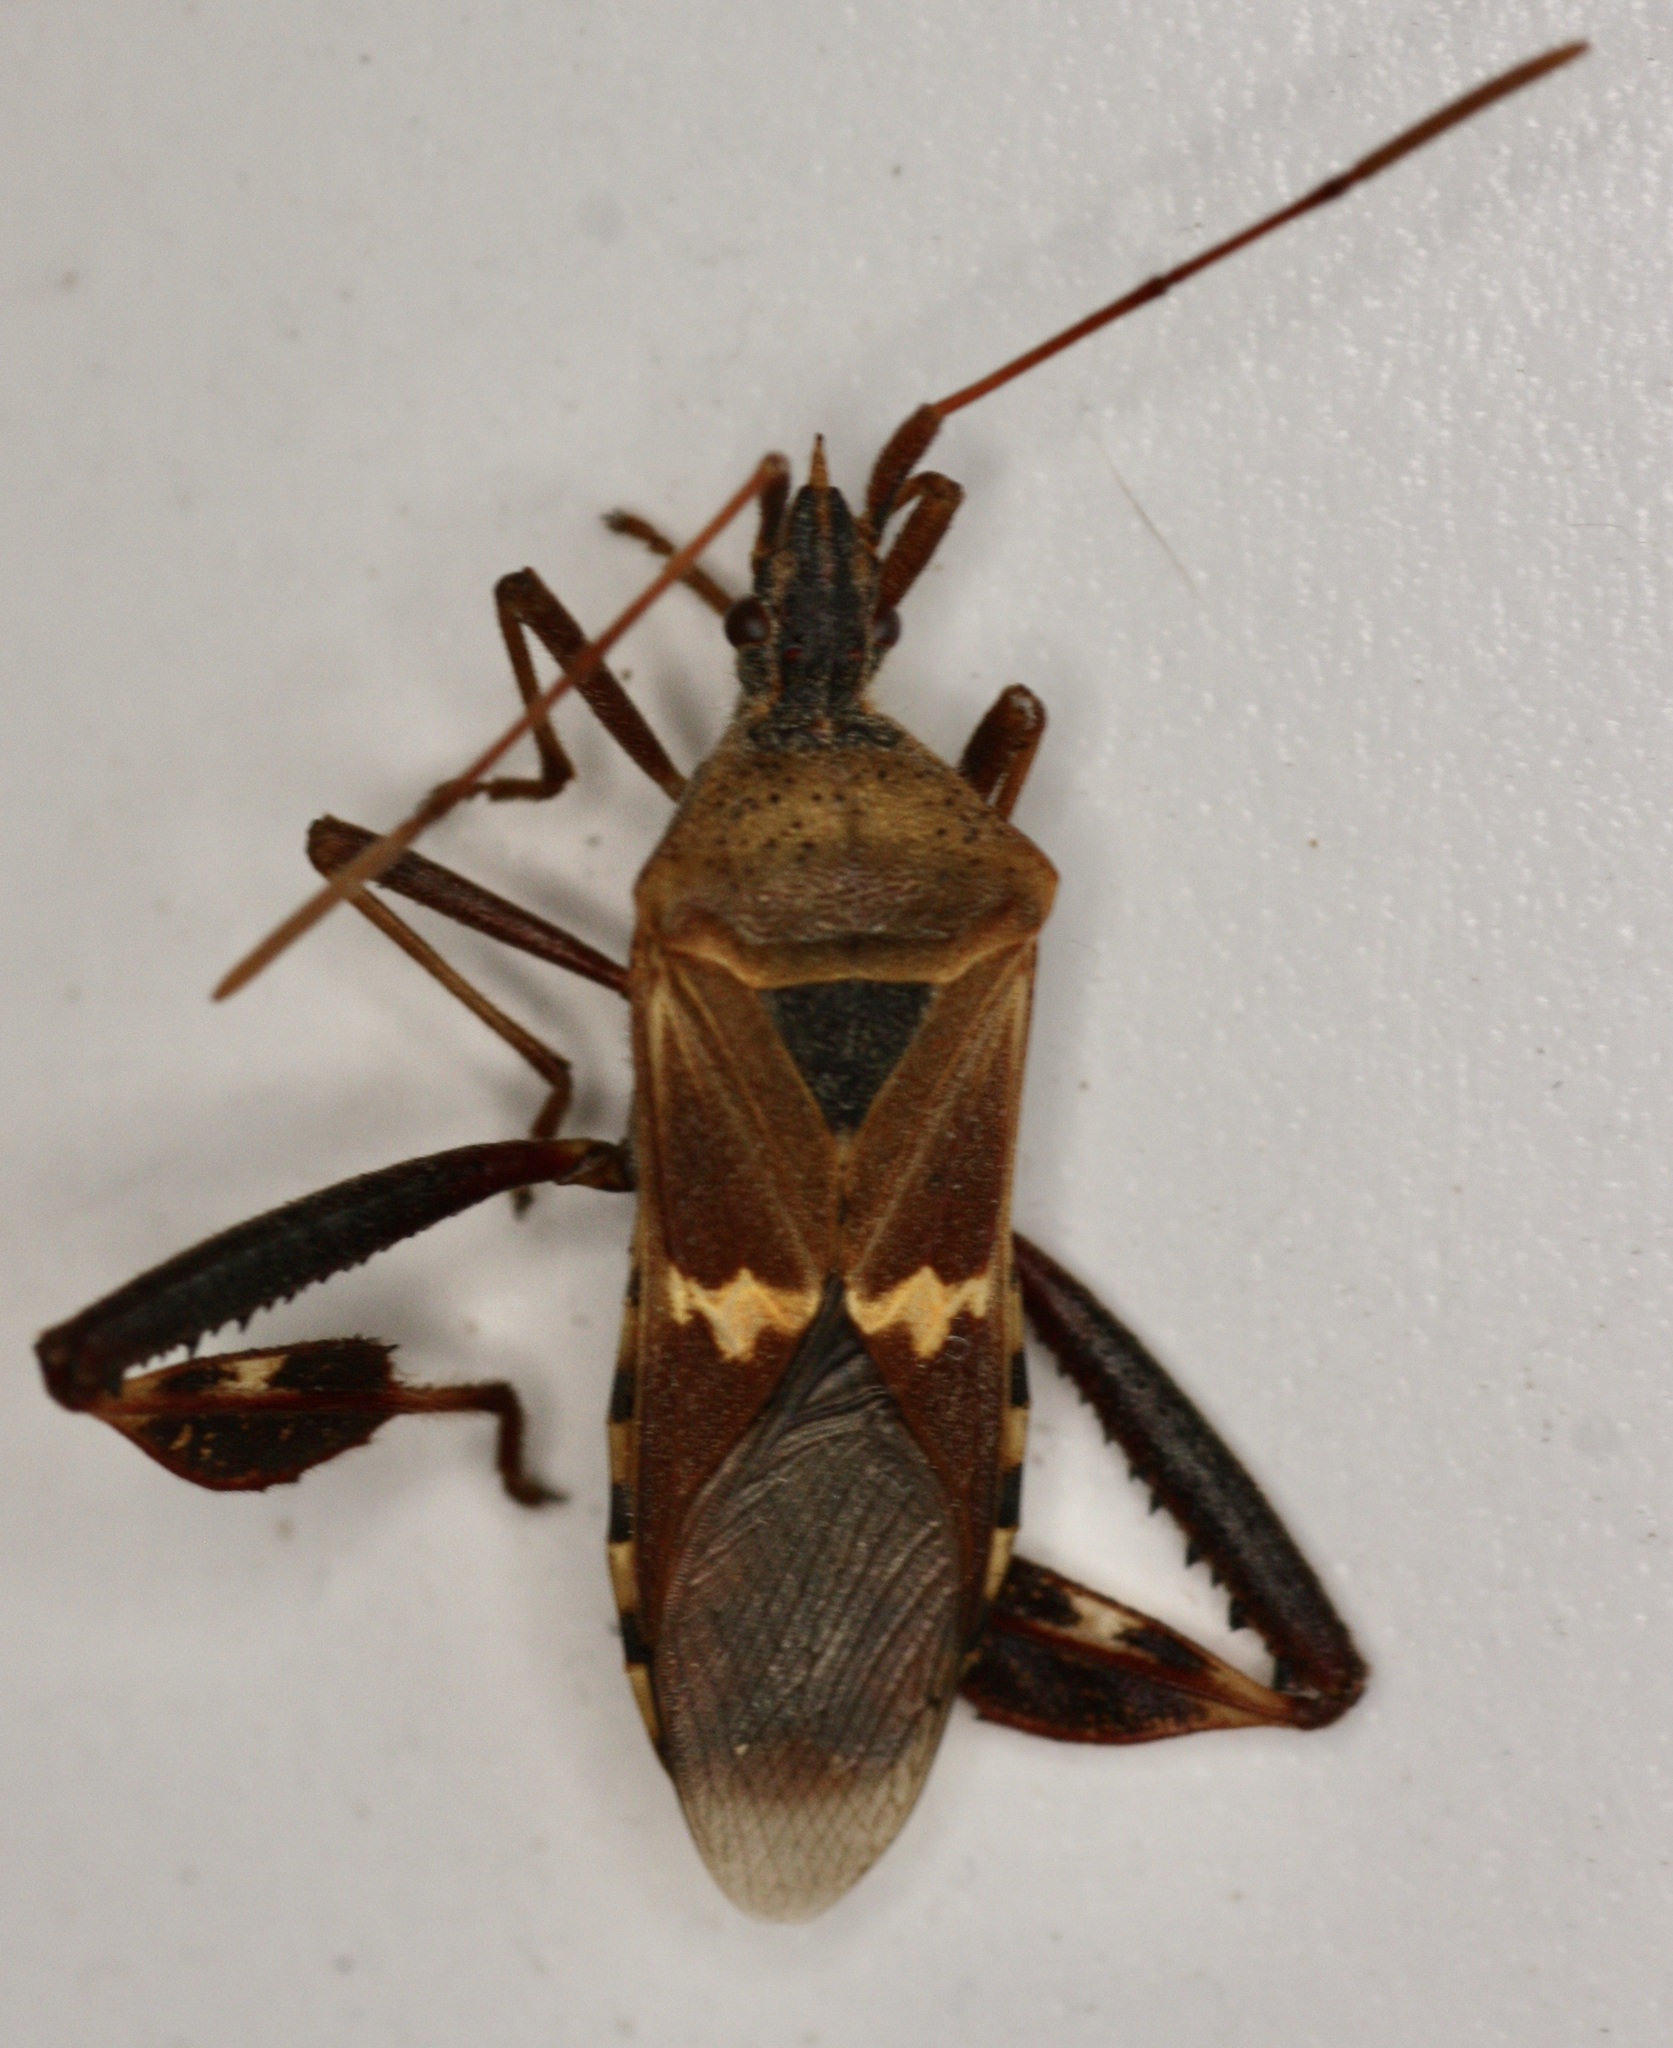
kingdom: Animalia
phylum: Arthropoda
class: Insecta
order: Hemiptera
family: Coreidae
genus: Leptoglossus
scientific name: Leptoglossus clypealis
